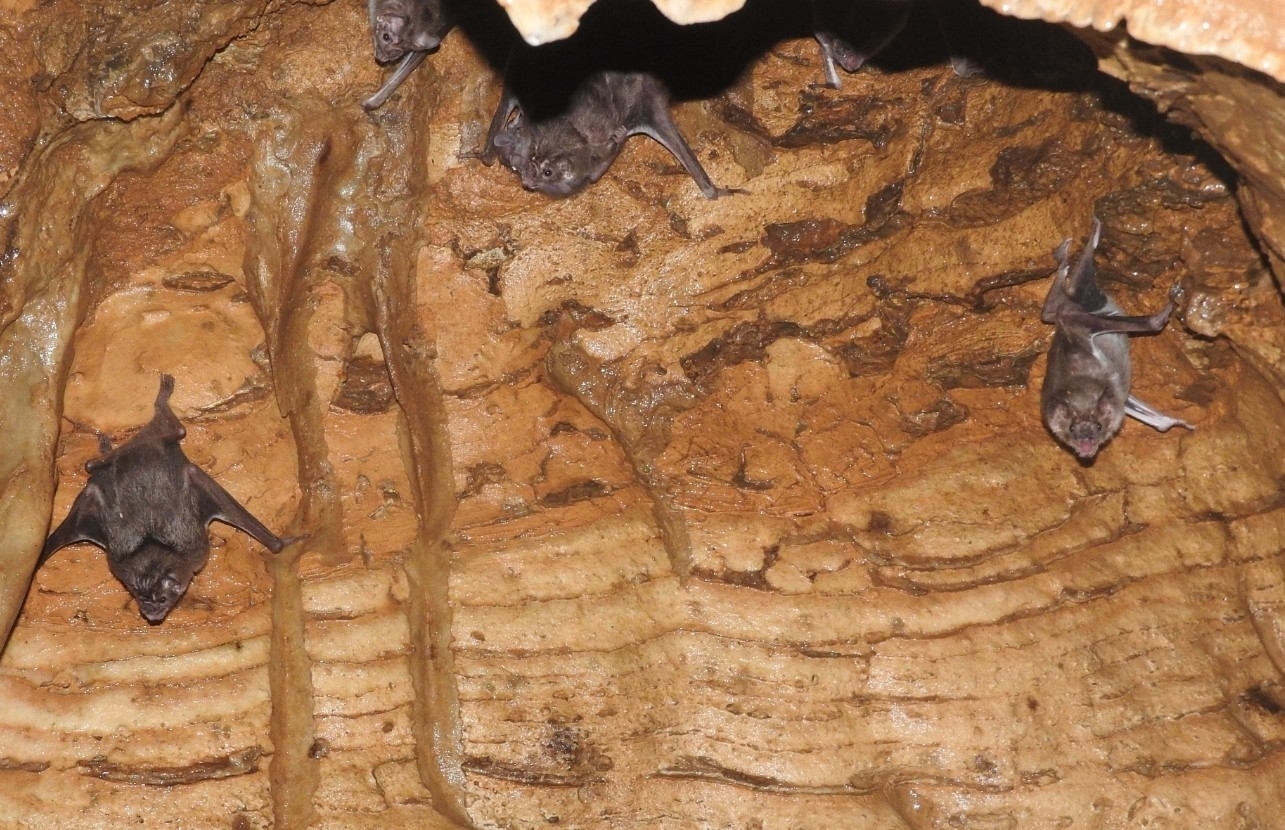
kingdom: Animalia
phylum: Chordata
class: Mammalia
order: Chiroptera
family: Phyllostomidae
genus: Desmodus
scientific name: Desmodus rotundus
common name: Common vampire bat
